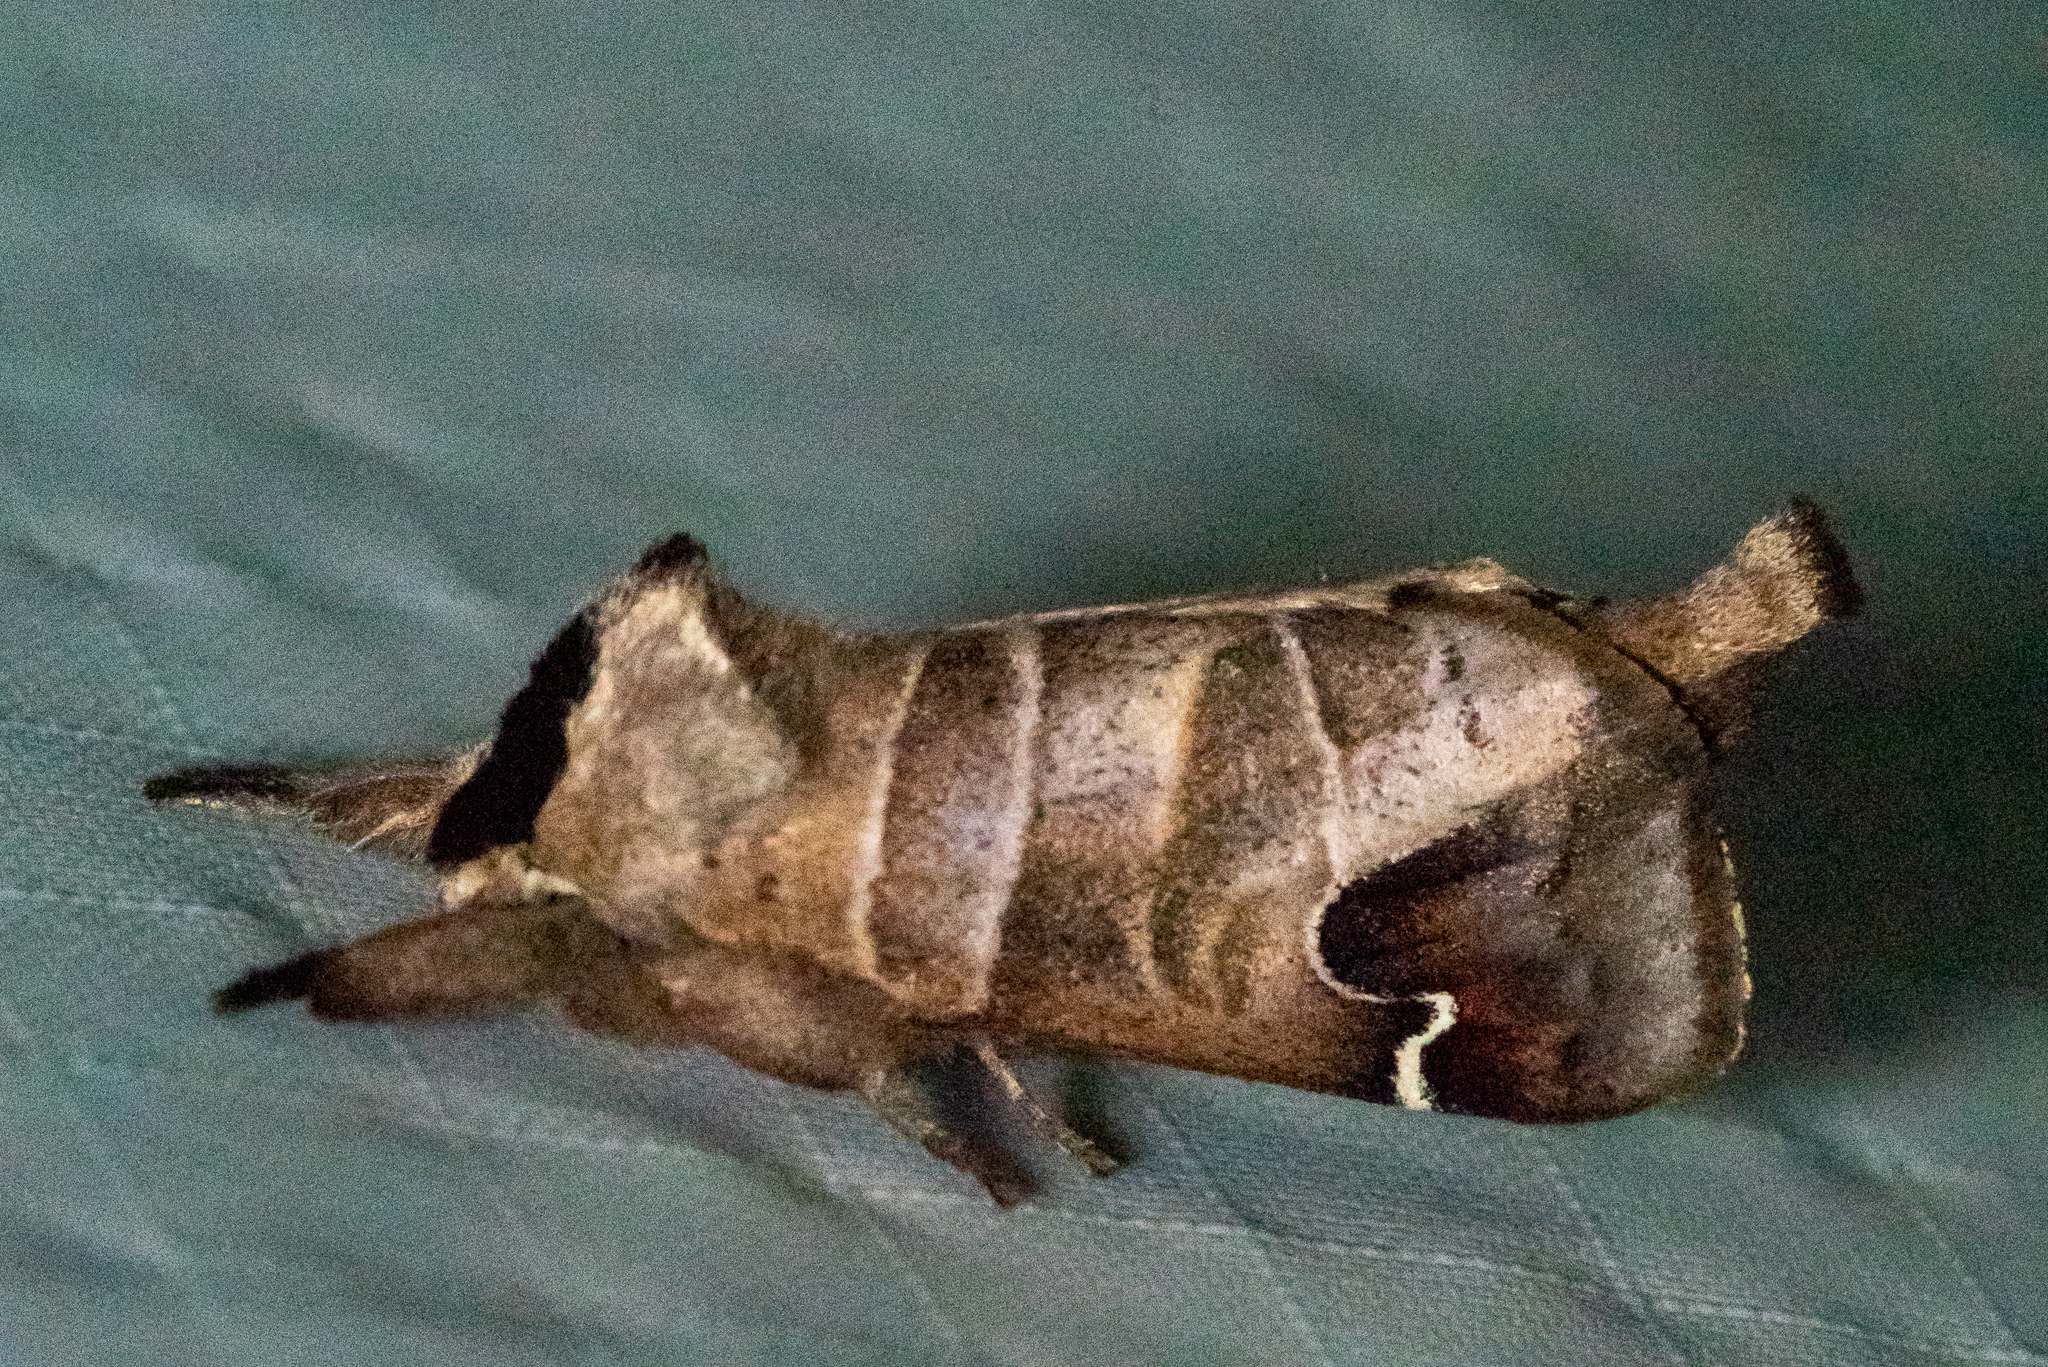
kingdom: Animalia
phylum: Arthropoda
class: Insecta
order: Lepidoptera
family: Notodontidae
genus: Clostera
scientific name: Clostera albosigma
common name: Sigmoid prominent
